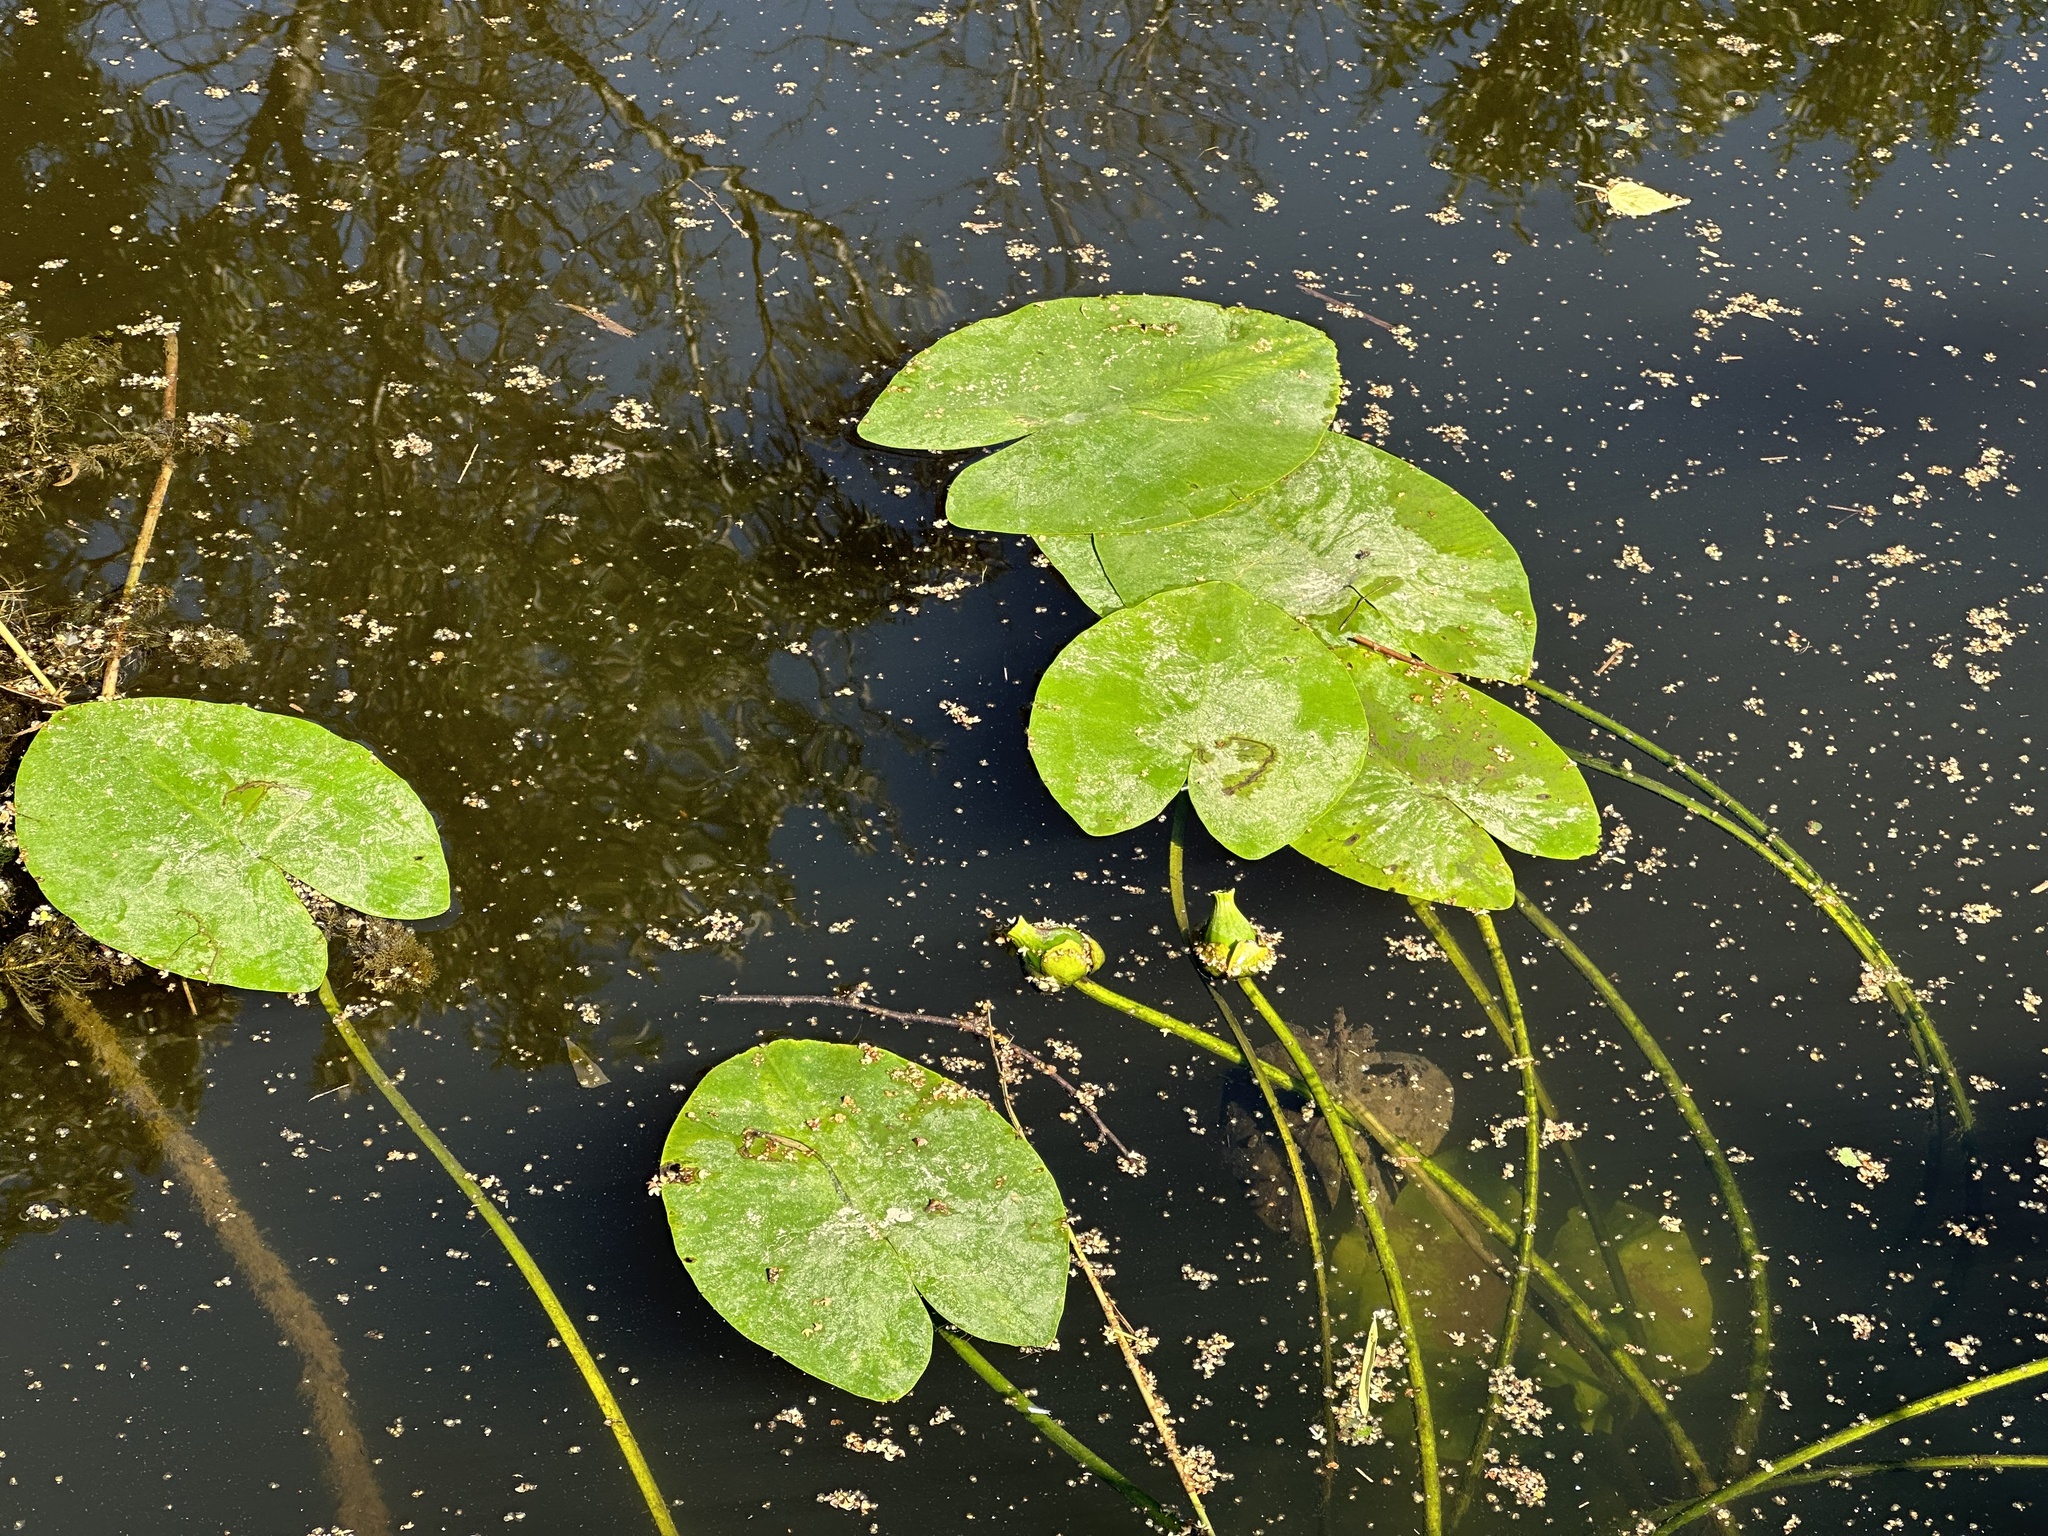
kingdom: Plantae
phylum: Tracheophyta
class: Magnoliopsida
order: Nymphaeales
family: Nymphaeaceae
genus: Nuphar
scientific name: Nuphar lutea
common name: Yellow water-lily
